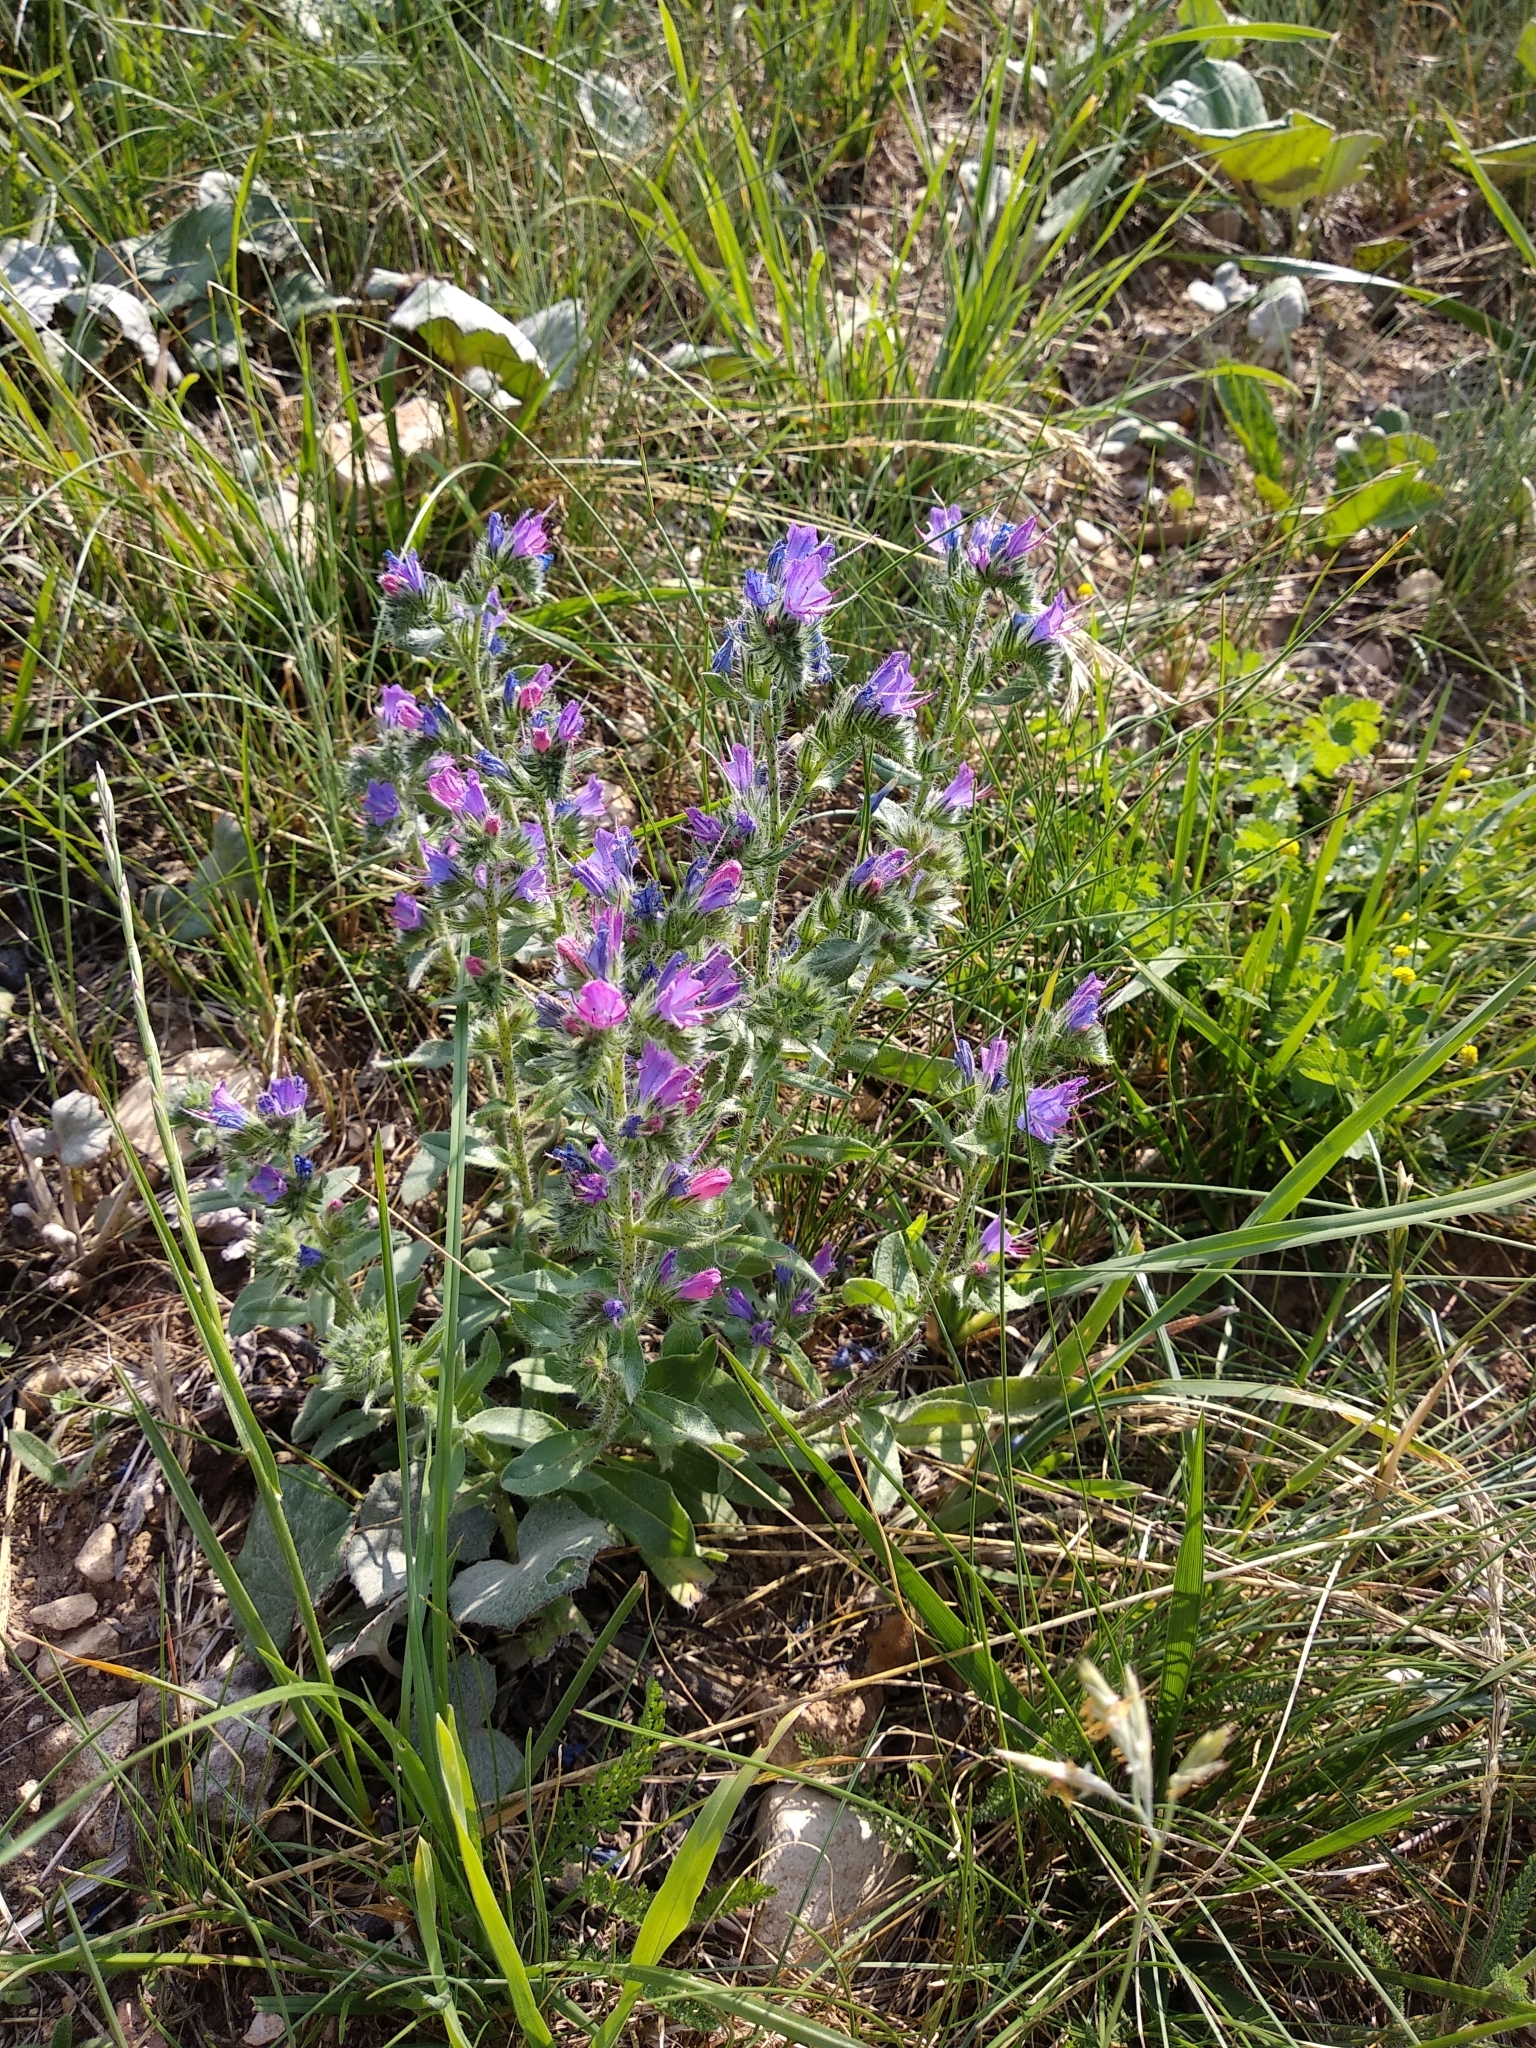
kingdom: Plantae
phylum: Tracheophyta
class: Magnoliopsida
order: Boraginales
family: Boraginaceae
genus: Echium
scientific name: Echium vulgare
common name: Common viper's bugloss
